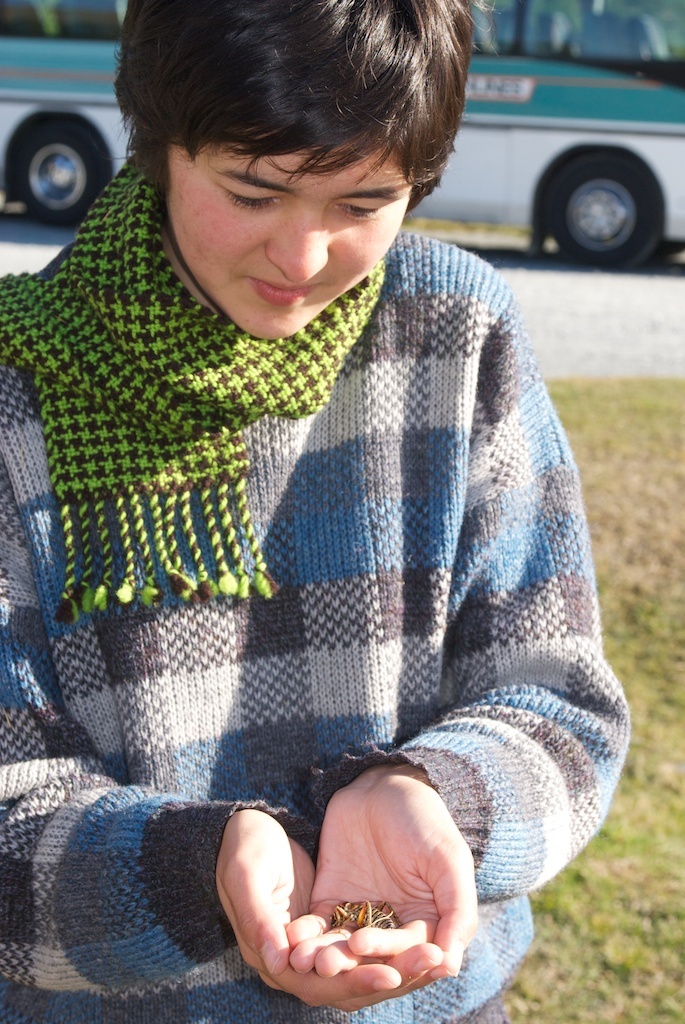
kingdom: Animalia
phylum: Arthropoda
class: Insecta
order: Orthoptera
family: Anostostomatidae
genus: Hemideina
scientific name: Hemideina maori
